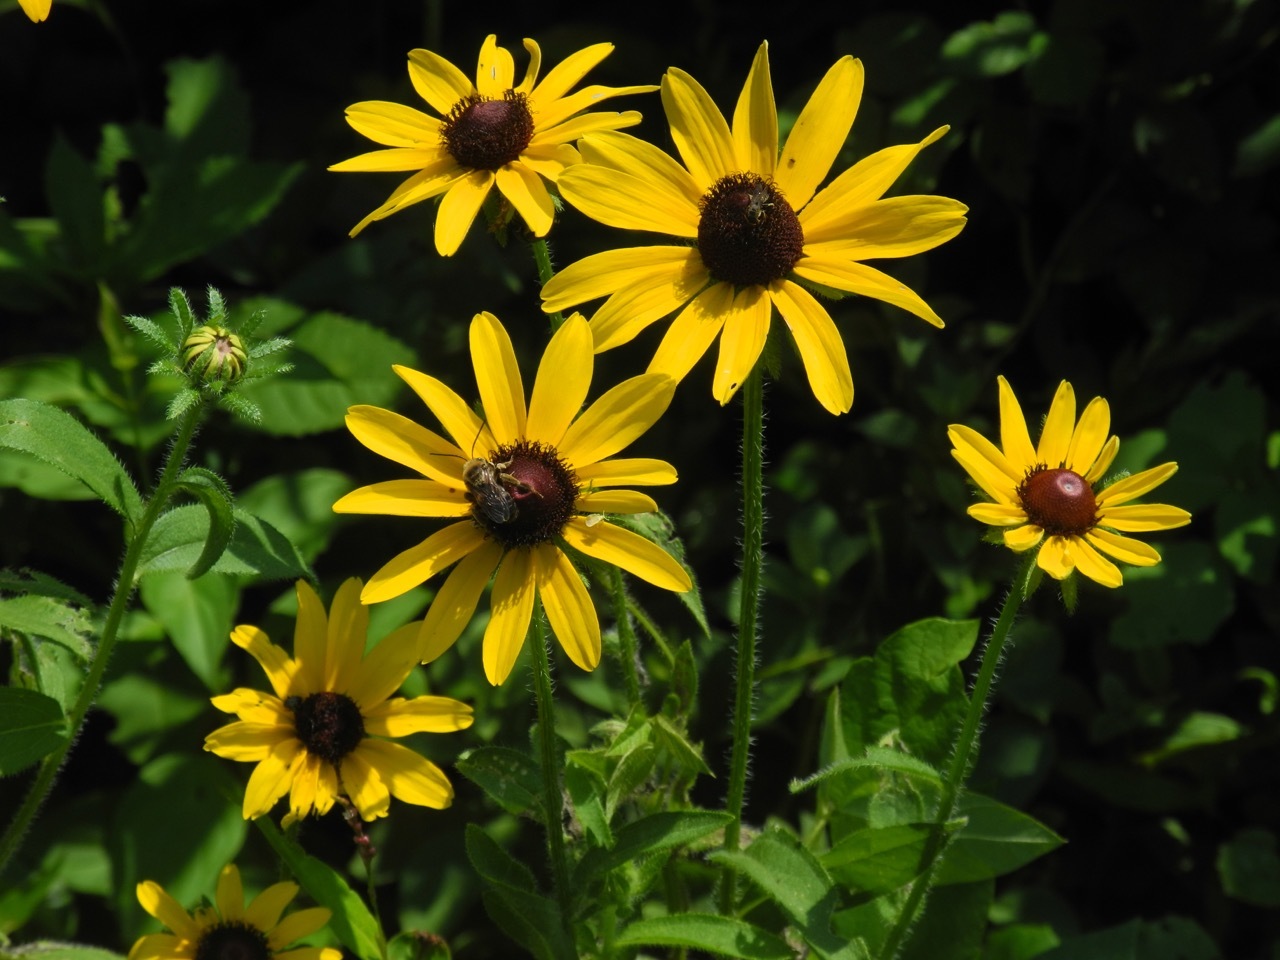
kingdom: Plantae
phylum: Tracheophyta
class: Magnoliopsida
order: Asterales
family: Asteraceae
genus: Rudbeckia
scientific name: Rudbeckia hirta
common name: Black-eyed-susan
